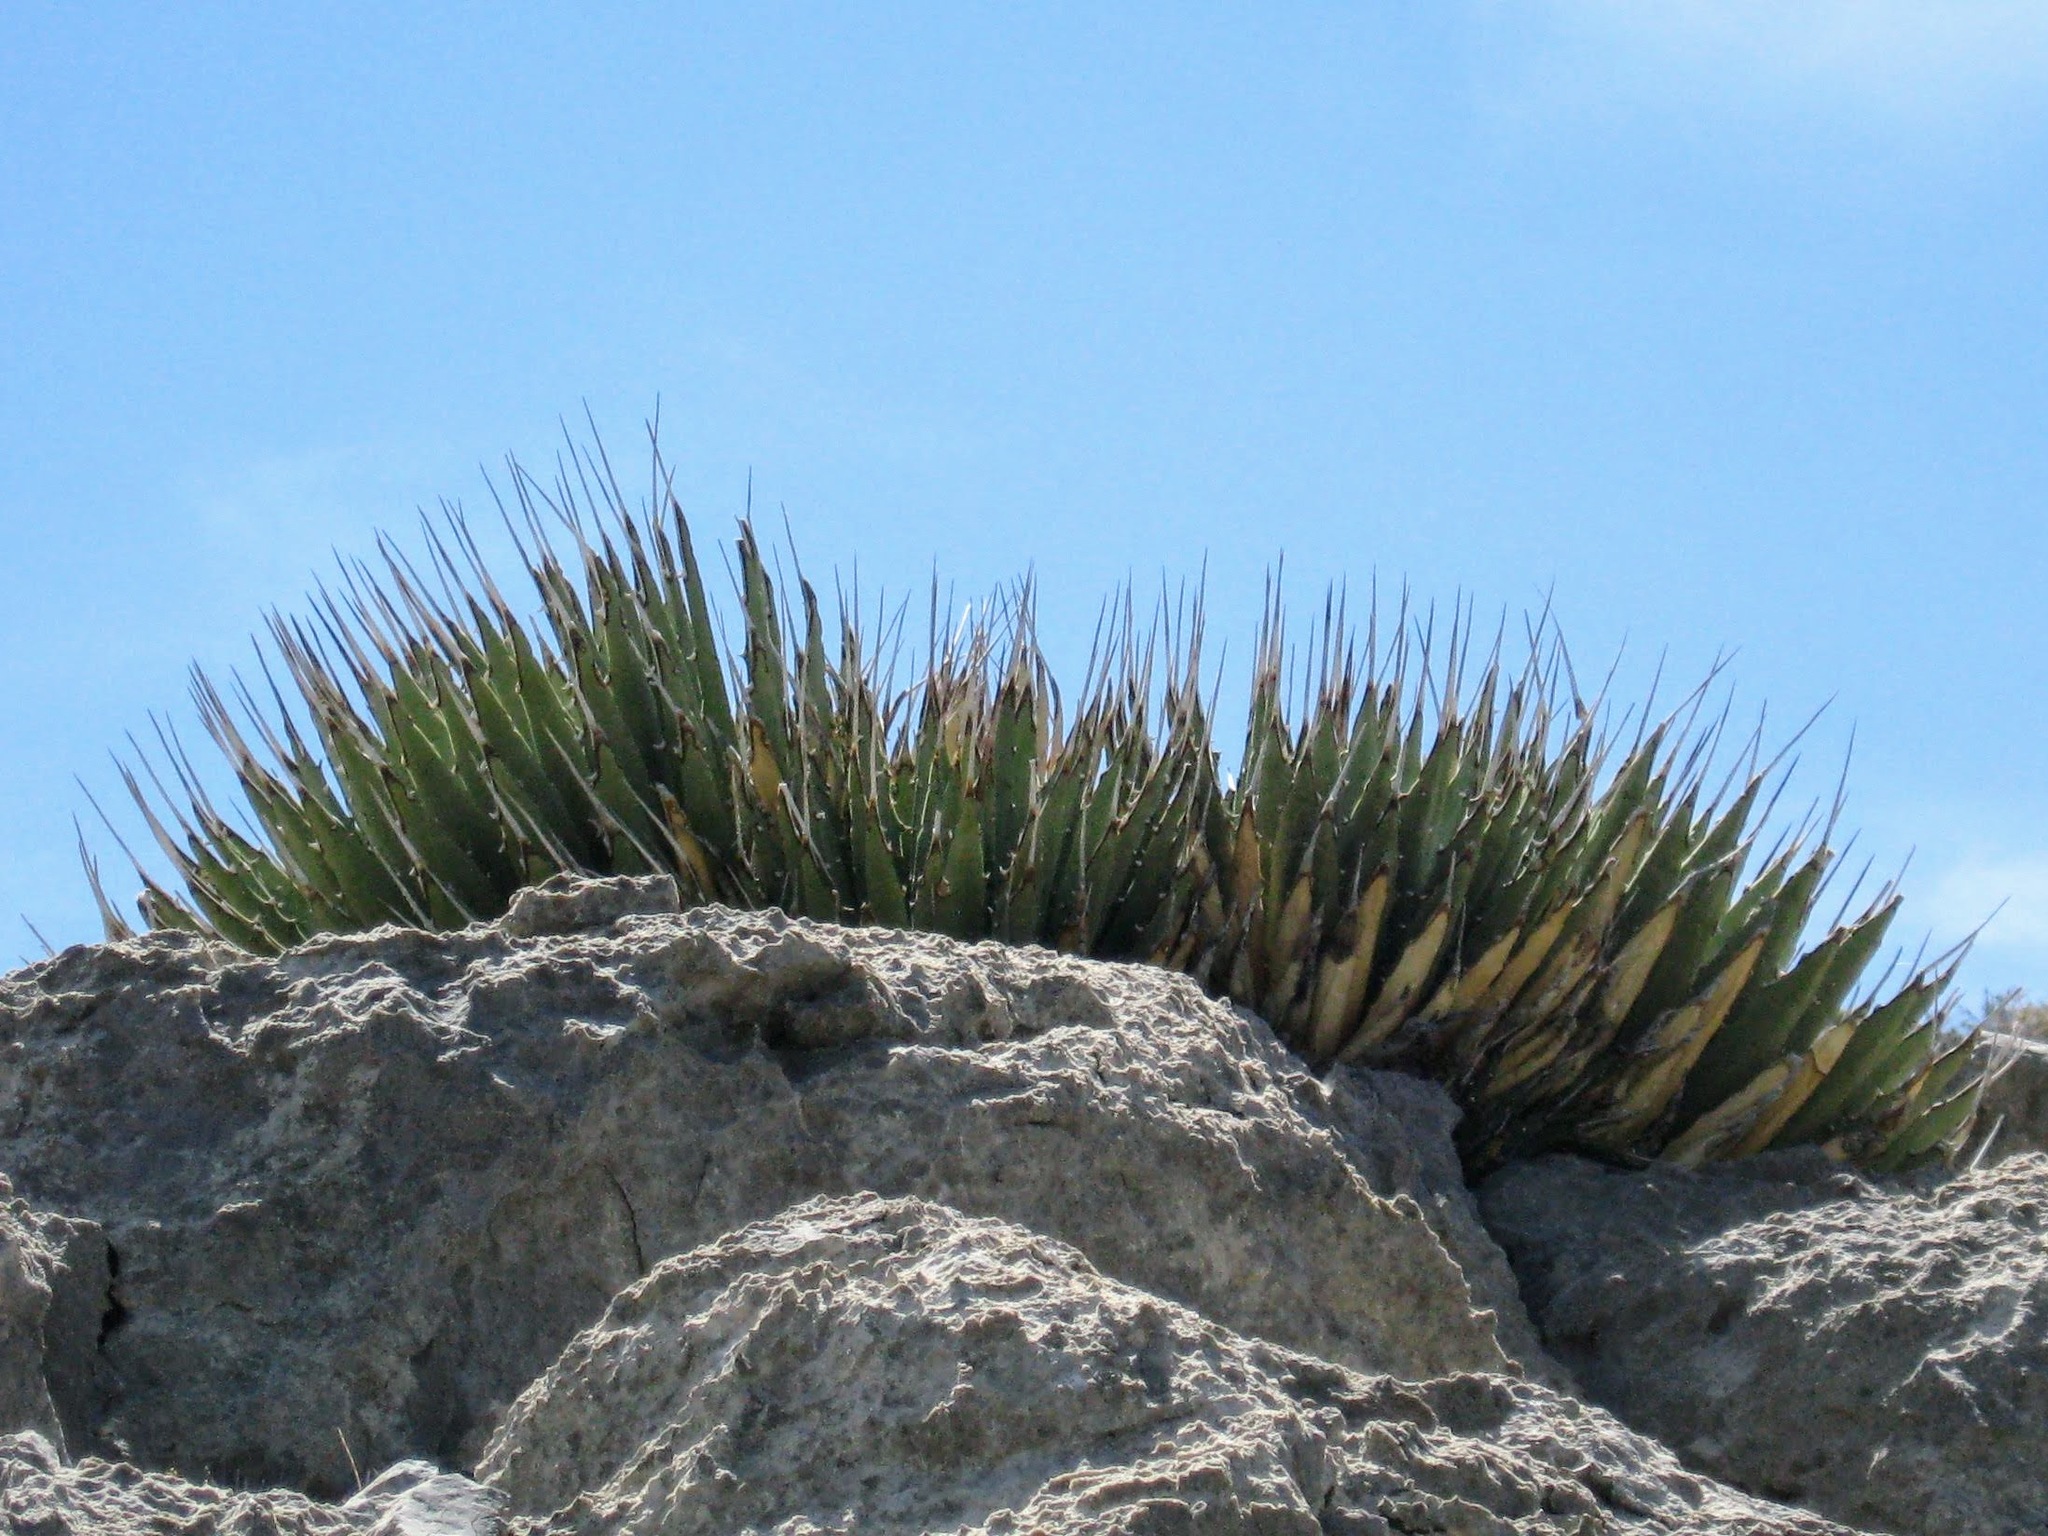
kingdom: Plantae
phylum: Tracheophyta
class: Liliopsida
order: Asparagales
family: Asparagaceae
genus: Agave
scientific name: Agave utahensis
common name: Utah agave
